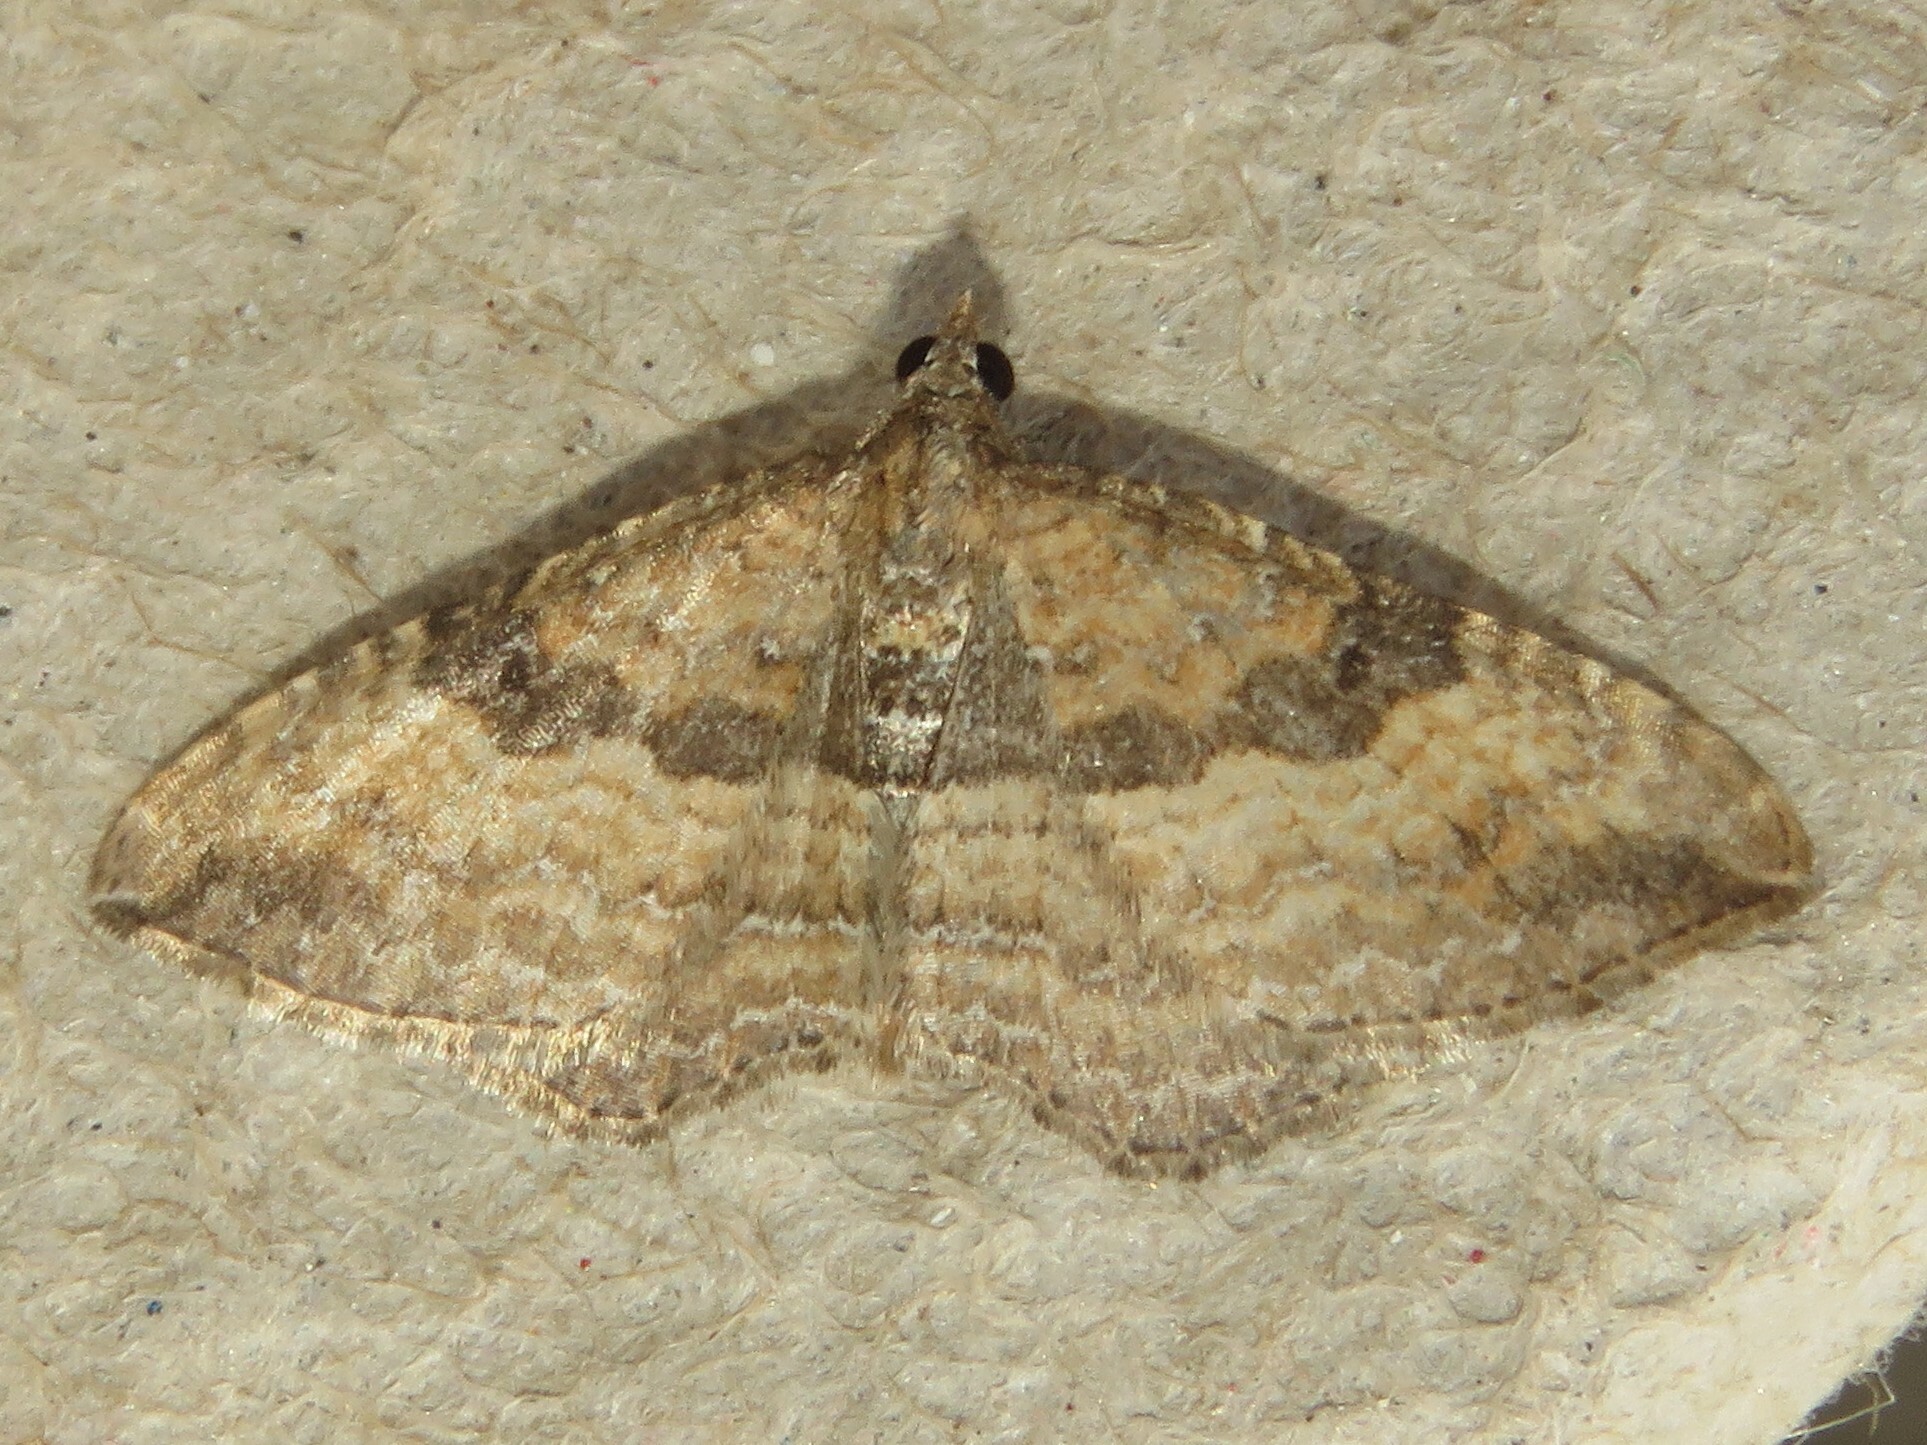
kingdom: Animalia
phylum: Arthropoda
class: Insecta
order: Lepidoptera
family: Geometridae
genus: Orthonama
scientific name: Orthonama obstipata
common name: The gem
